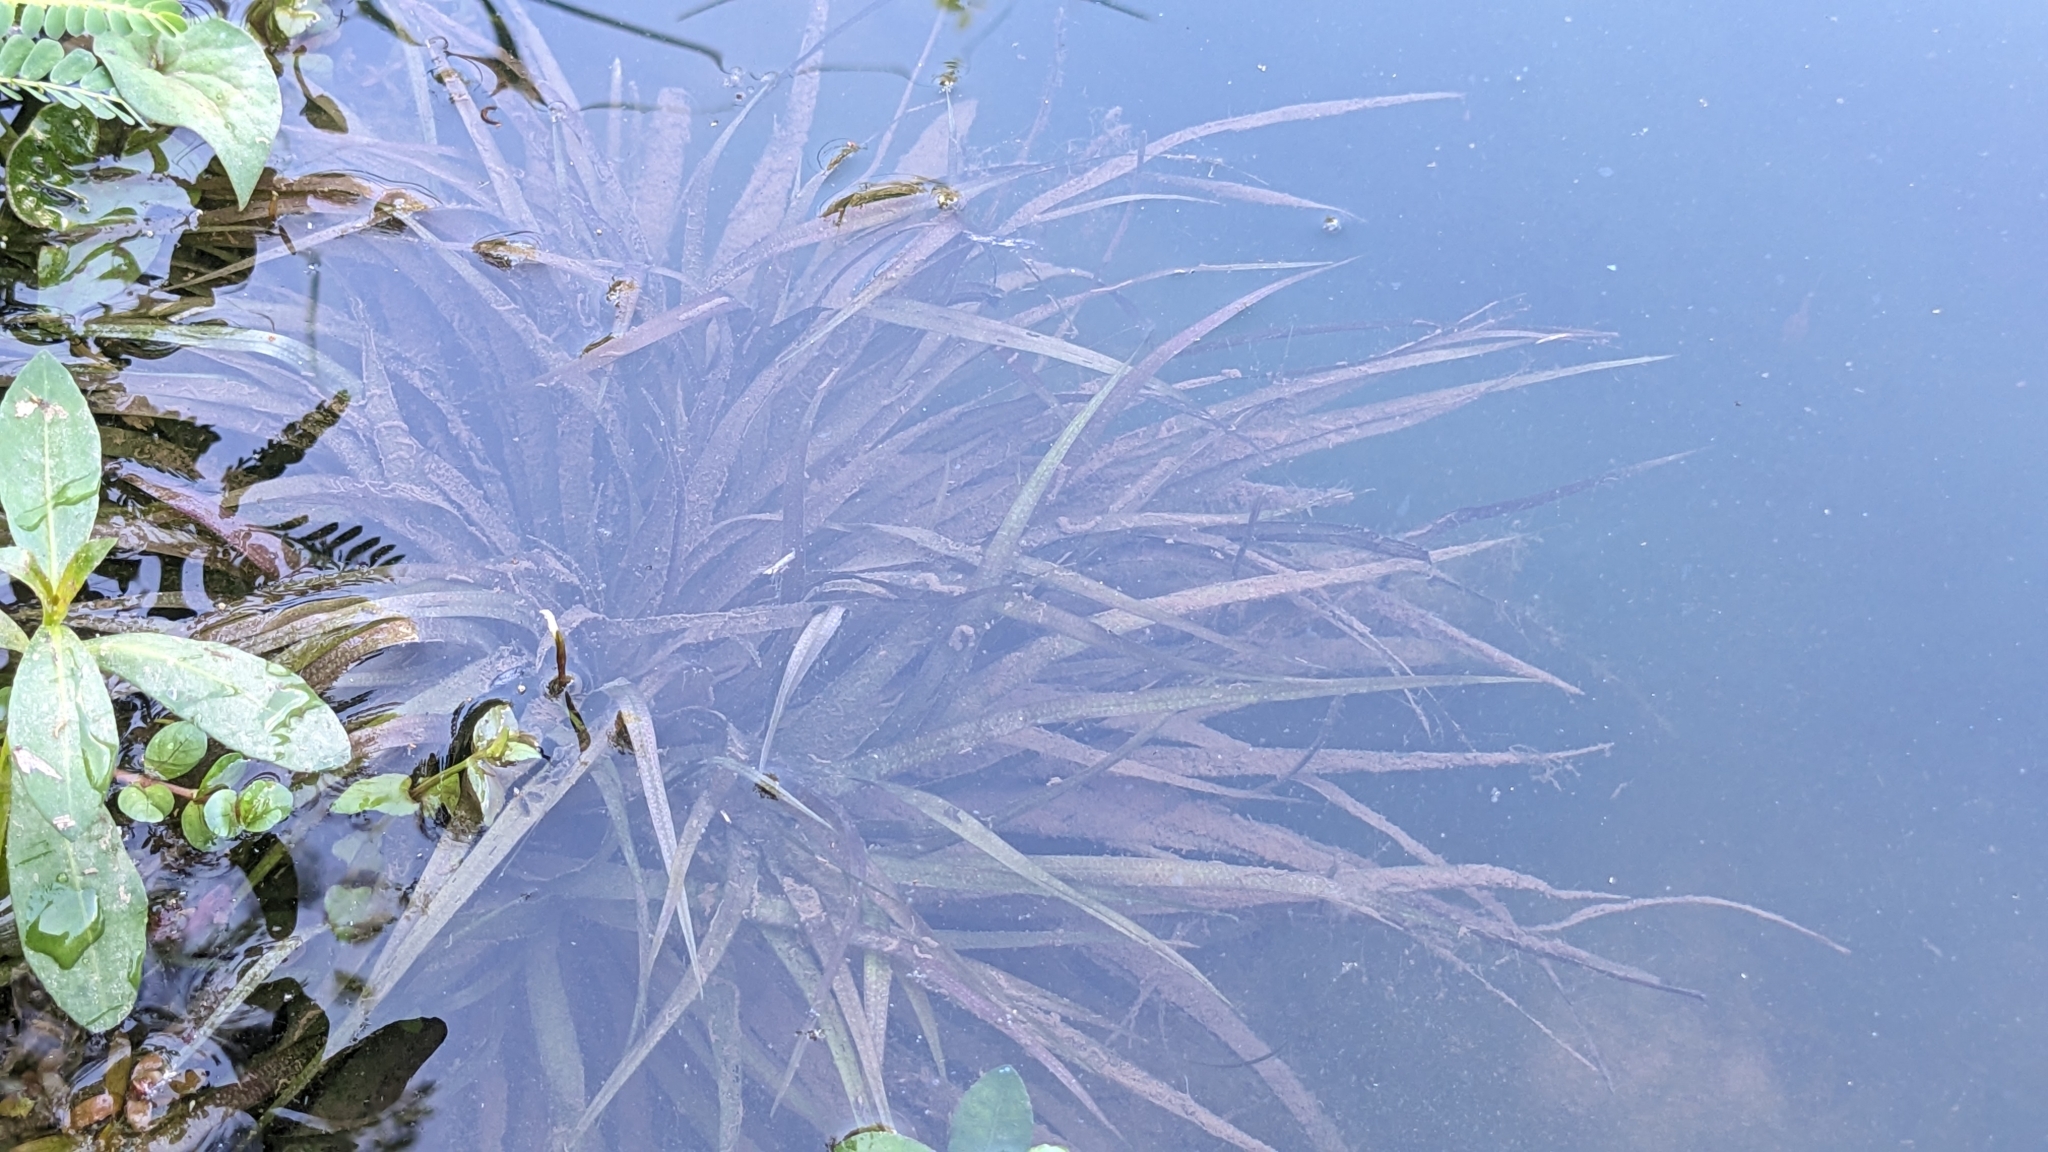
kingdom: Plantae
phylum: Tracheophyta
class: Liliopsida
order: Alismatales
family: Hydrocharitaceae
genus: Blyxa
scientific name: Blyxa
